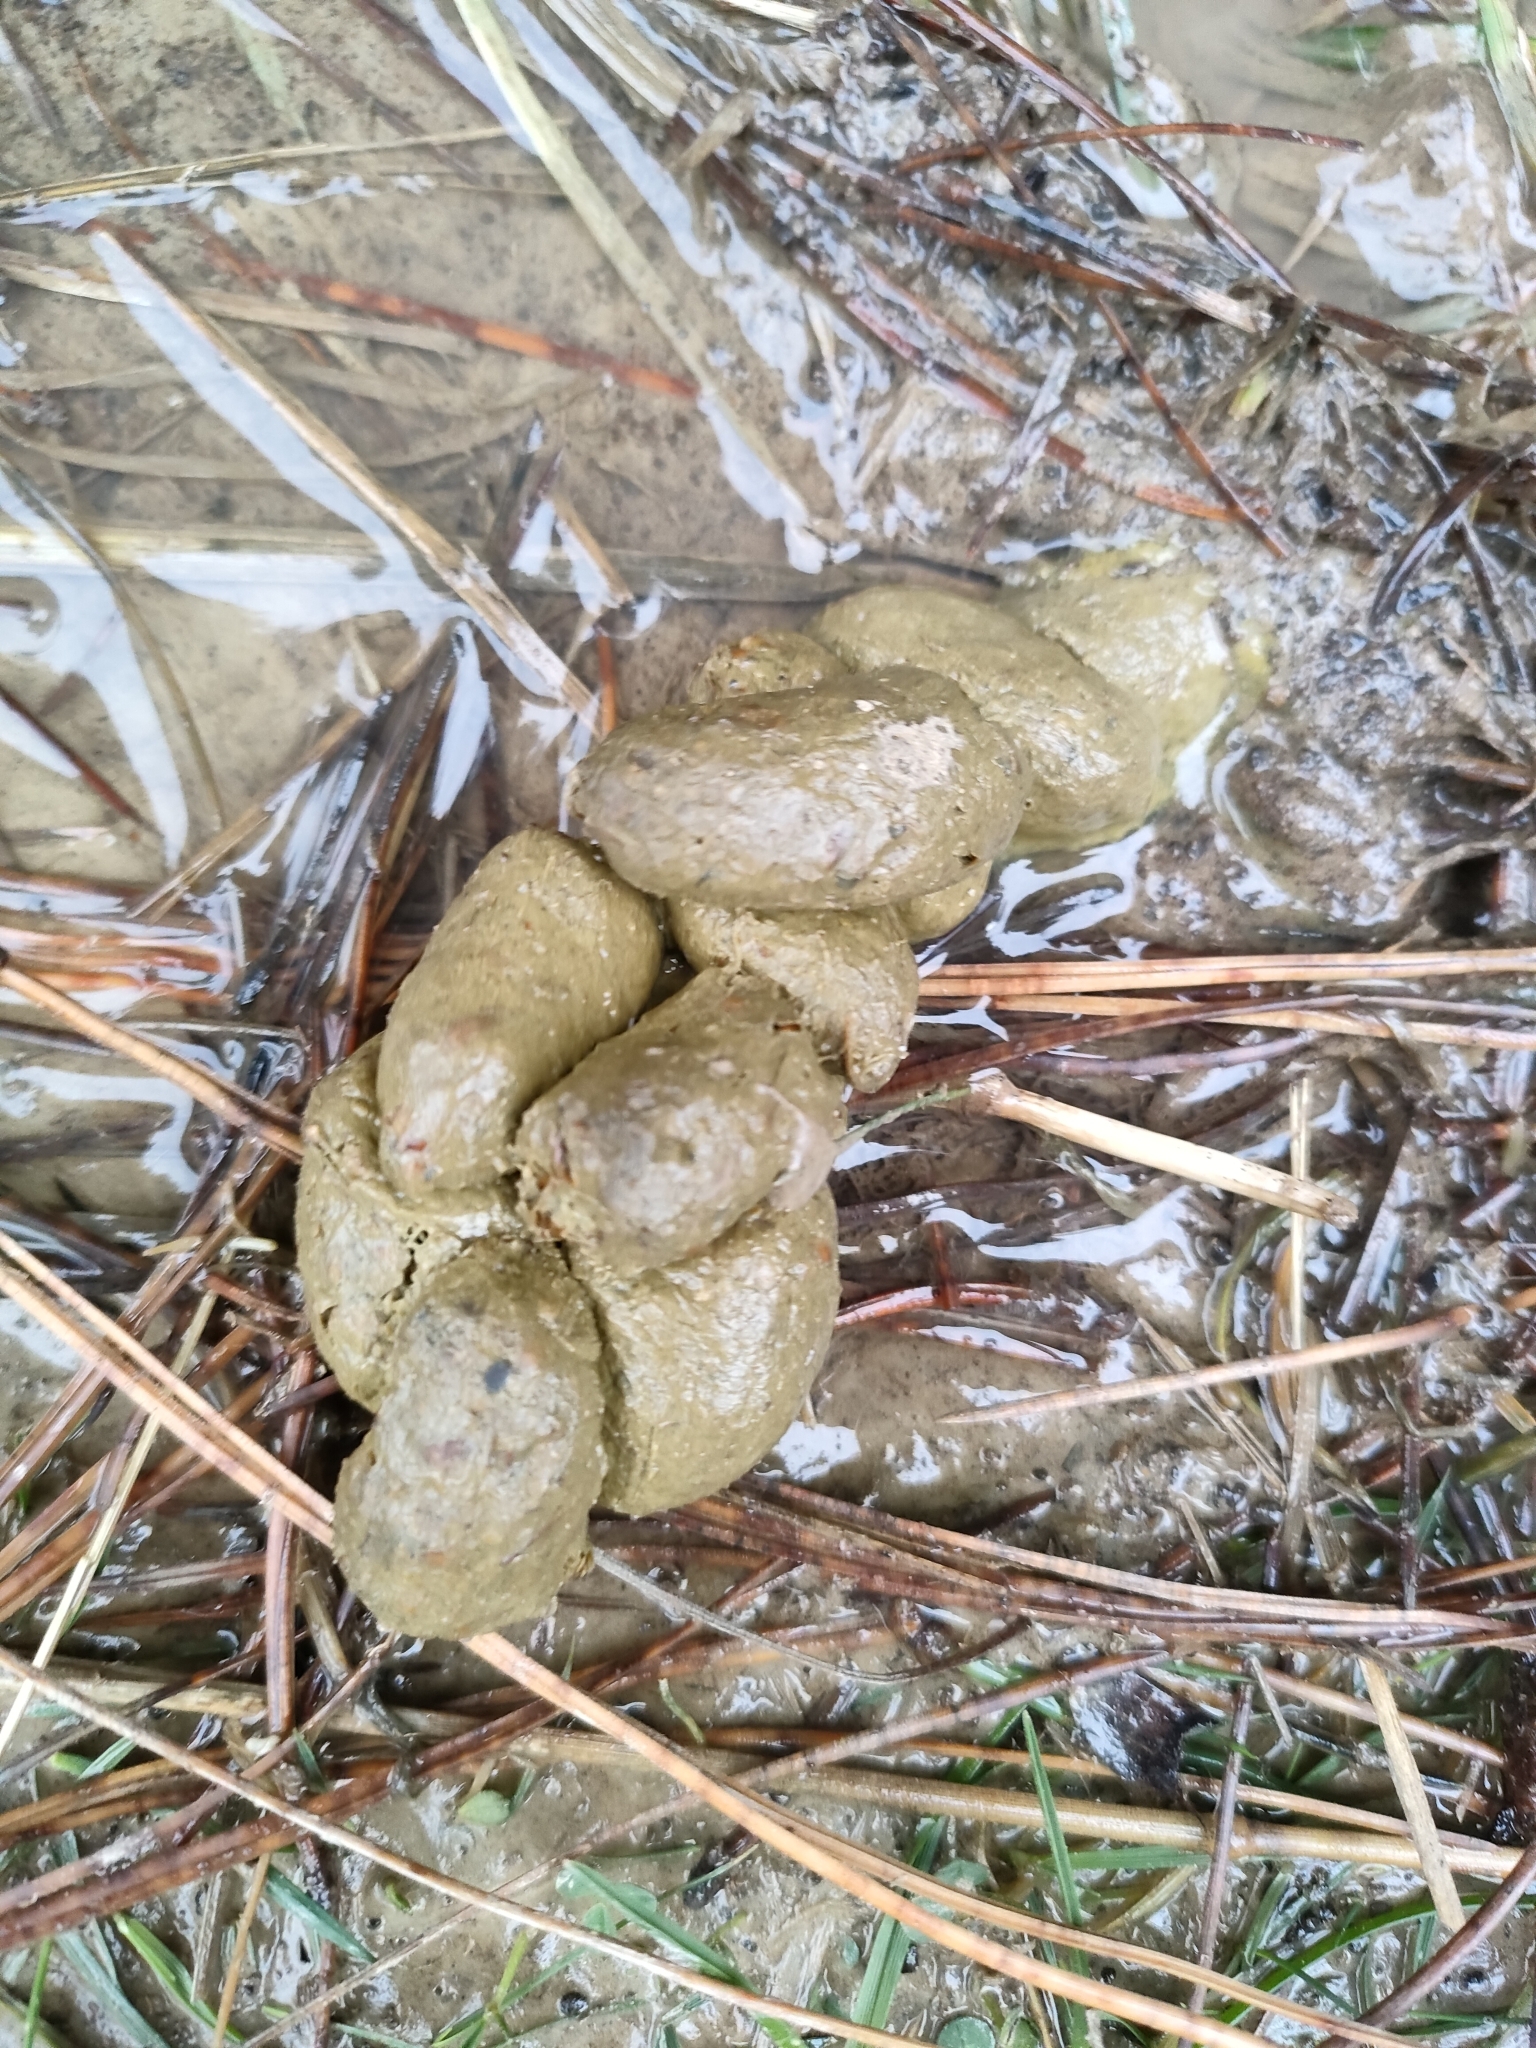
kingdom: Animalia
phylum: Chordata
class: Mammalia
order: Diprotodontia
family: Phalangeridae
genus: Trichosurus
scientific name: Trichosurus vulpecula
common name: Common brushtail
